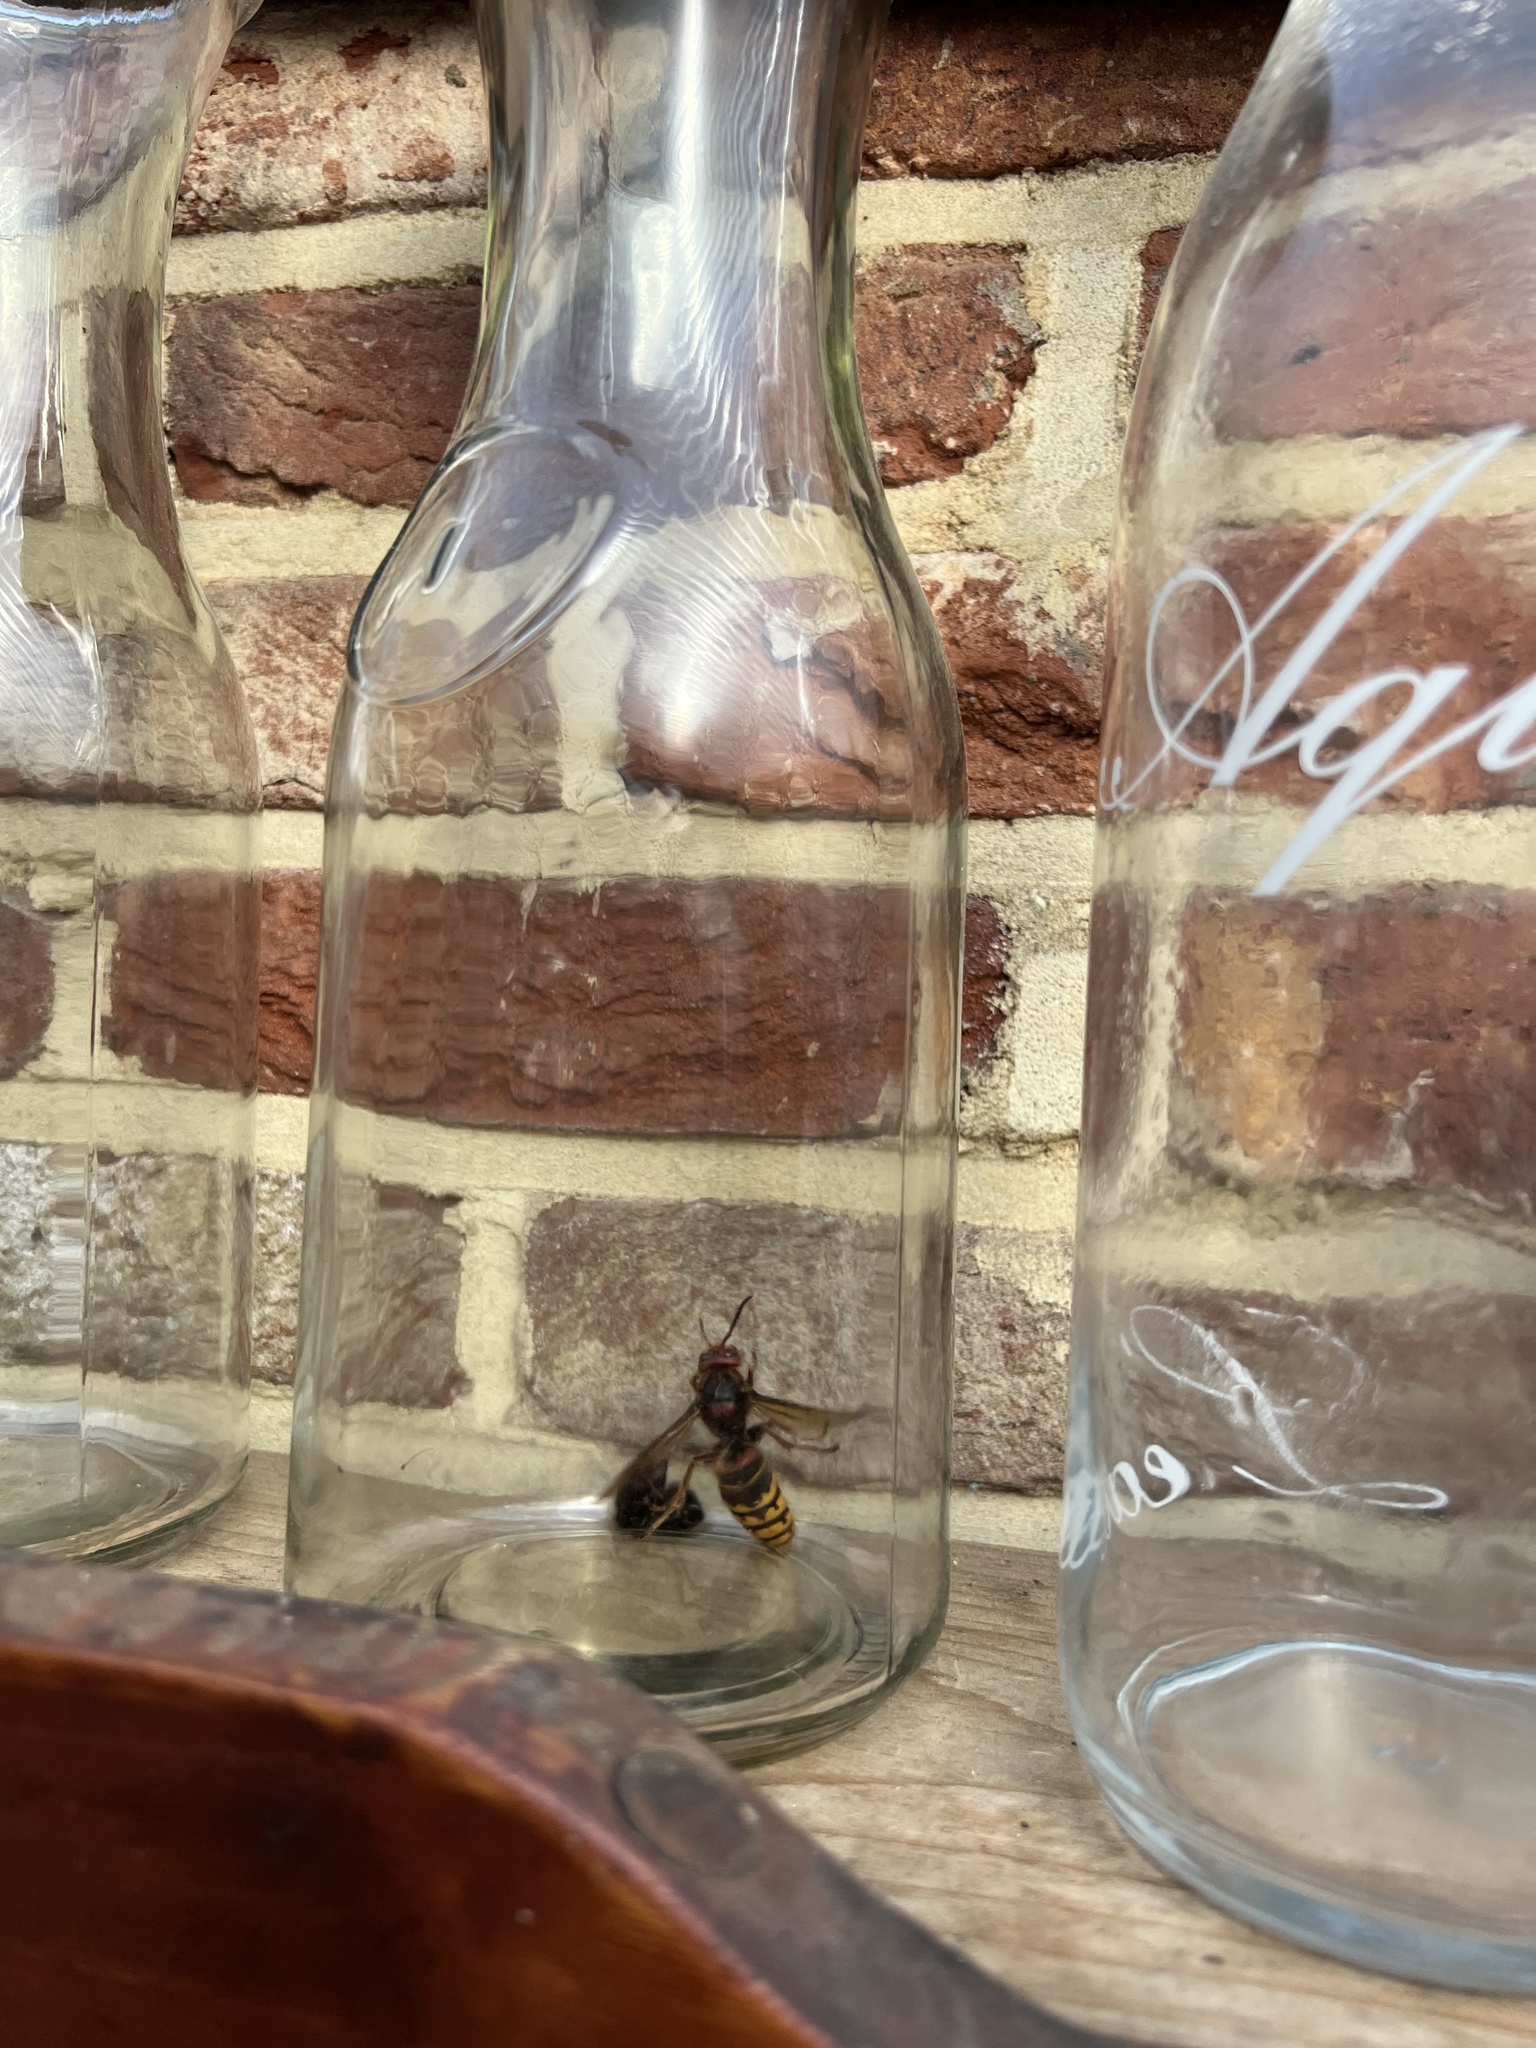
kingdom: Animalia
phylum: Arthropoda
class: Insecta
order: Hymenoptera
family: Vespidae
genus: Vespa
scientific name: Vespa crabro
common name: Hornet
